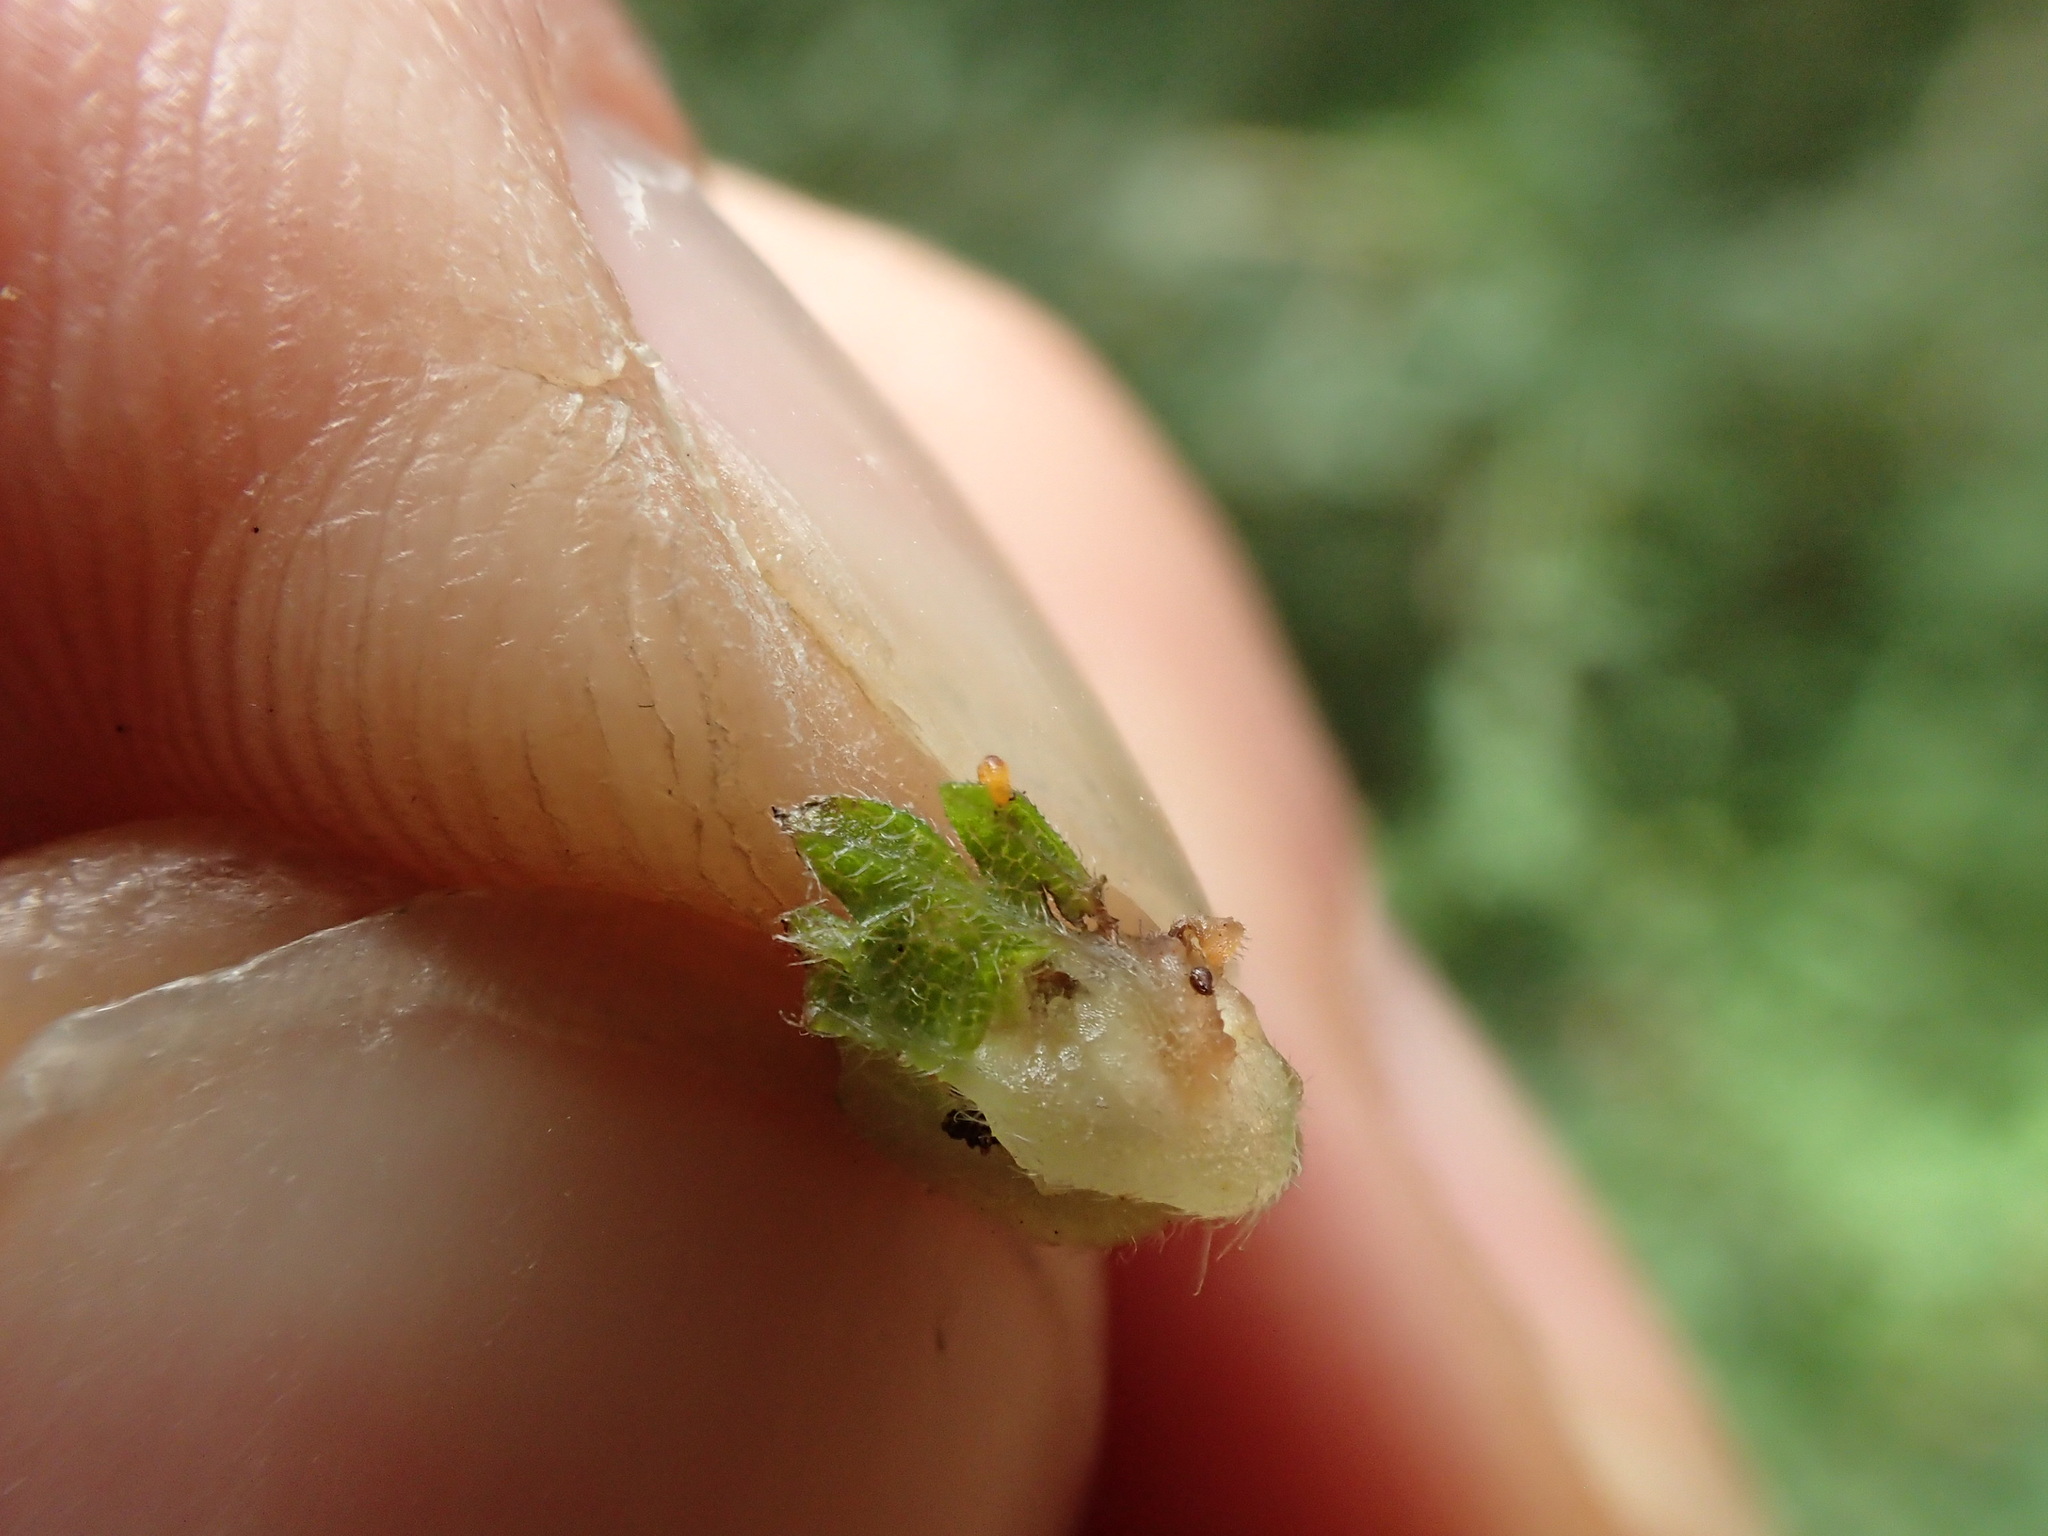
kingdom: Animalia
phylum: Arthropoda
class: Insecta
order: Diptera
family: Cecidomyiidae
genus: Lestodiplosis
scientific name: Lestodiplosis urticae
